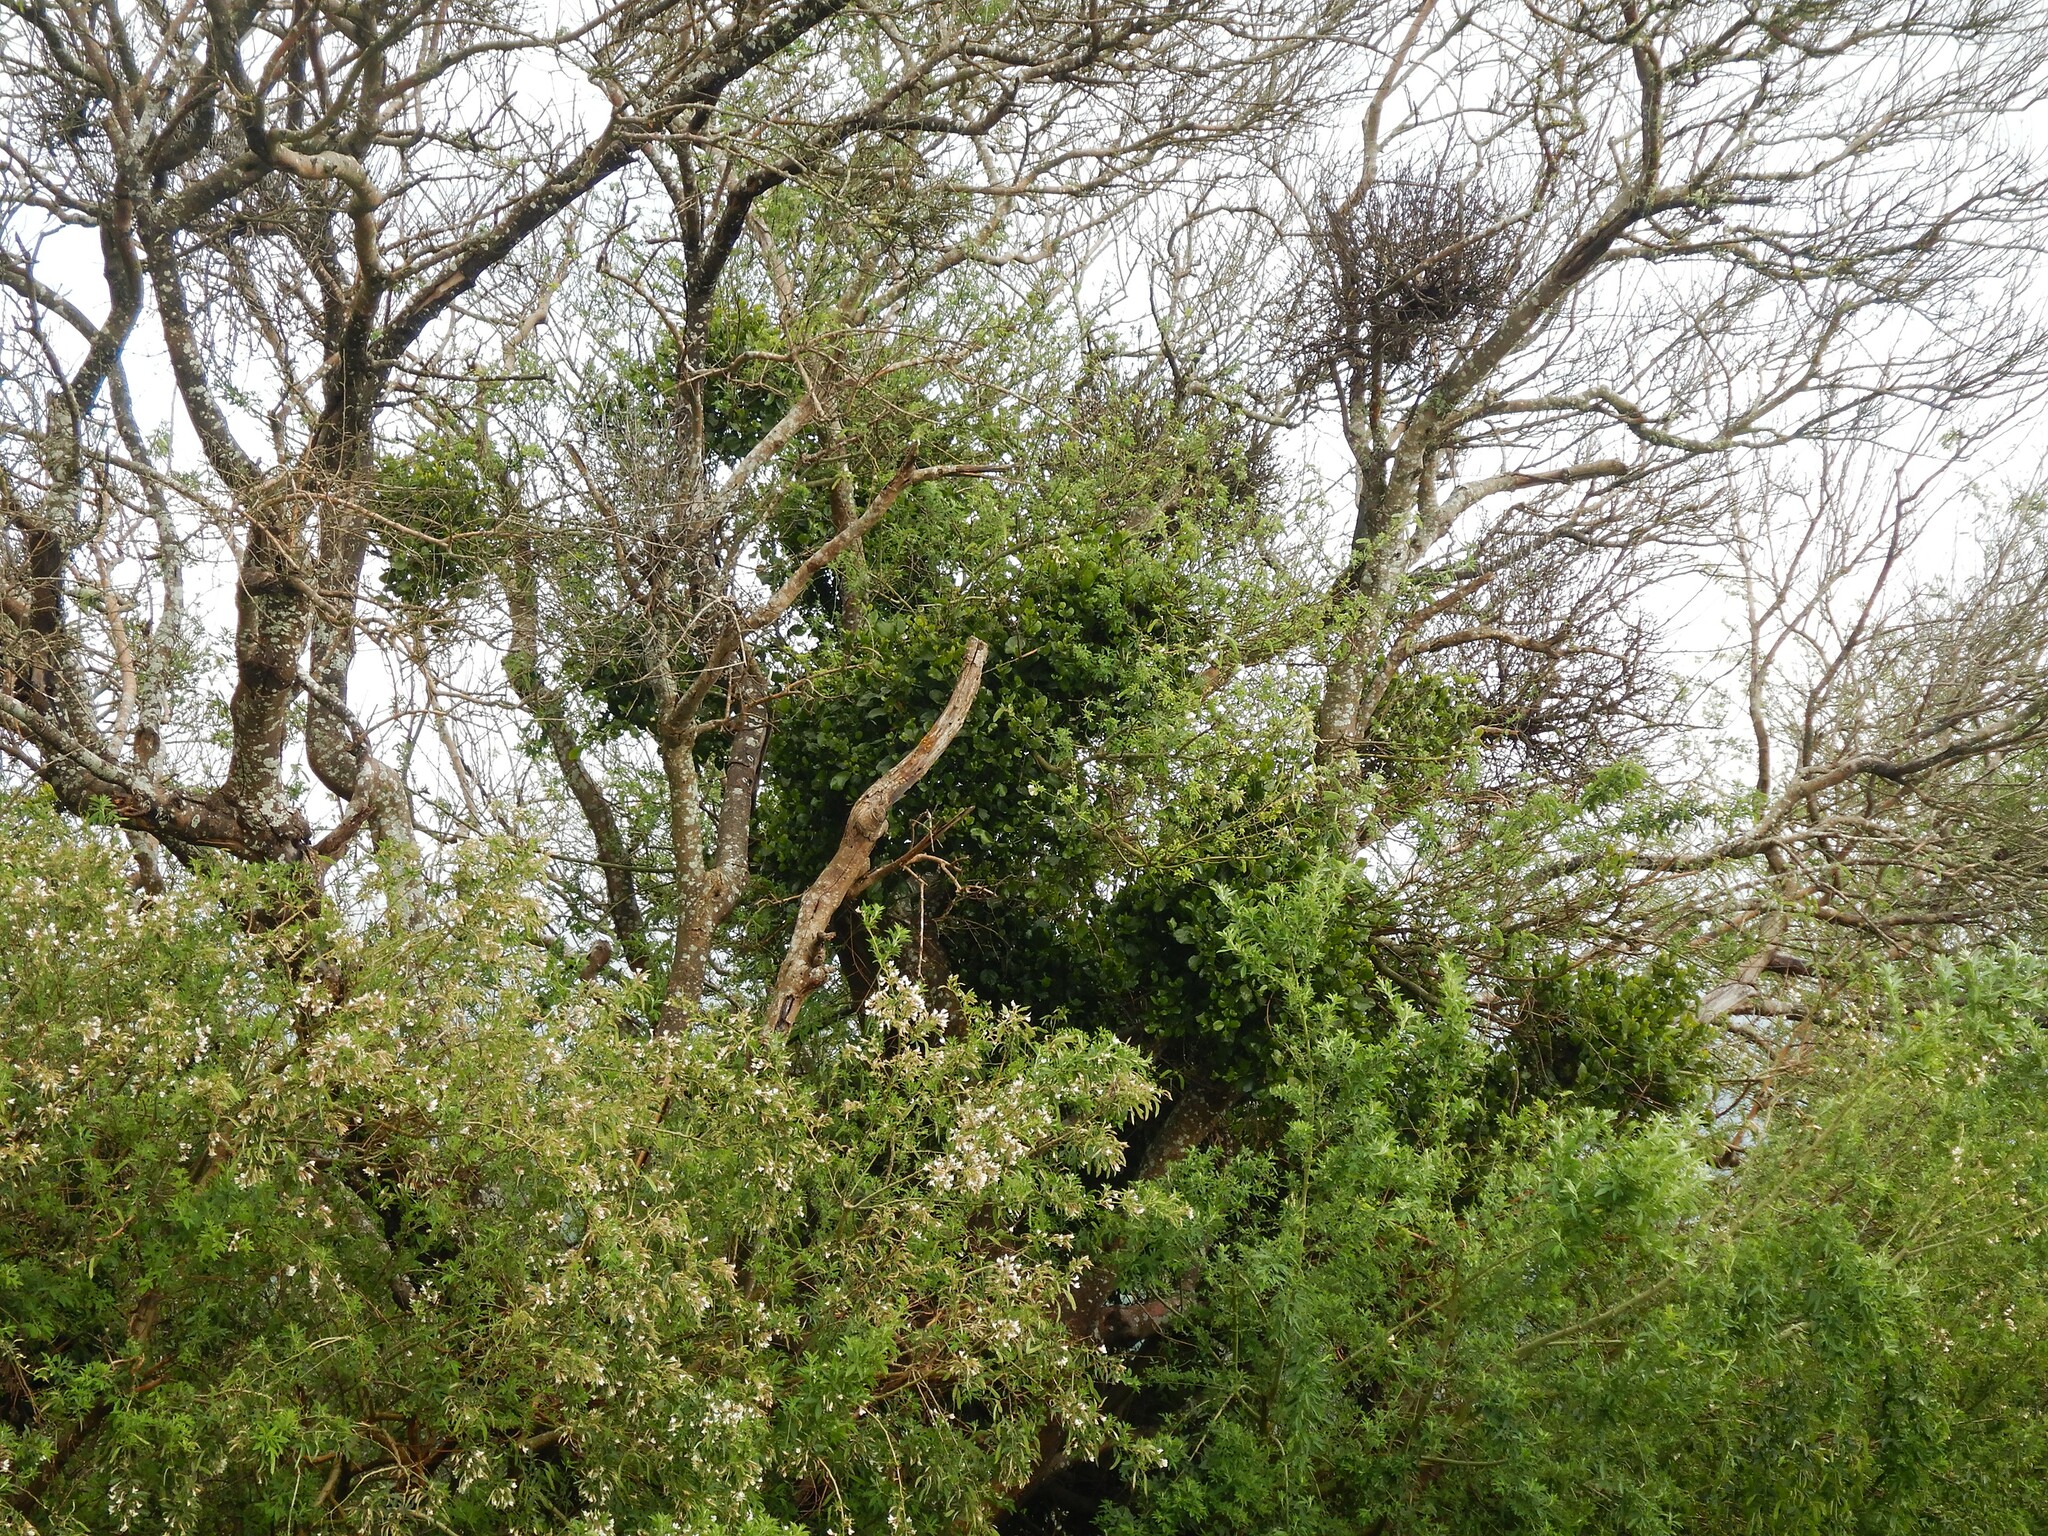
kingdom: Plantae
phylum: Tracheophyta
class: Magnoliopsida
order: Santalales
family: Loranthaceae
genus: Ileostylus
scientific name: Ileostylus micranthus
